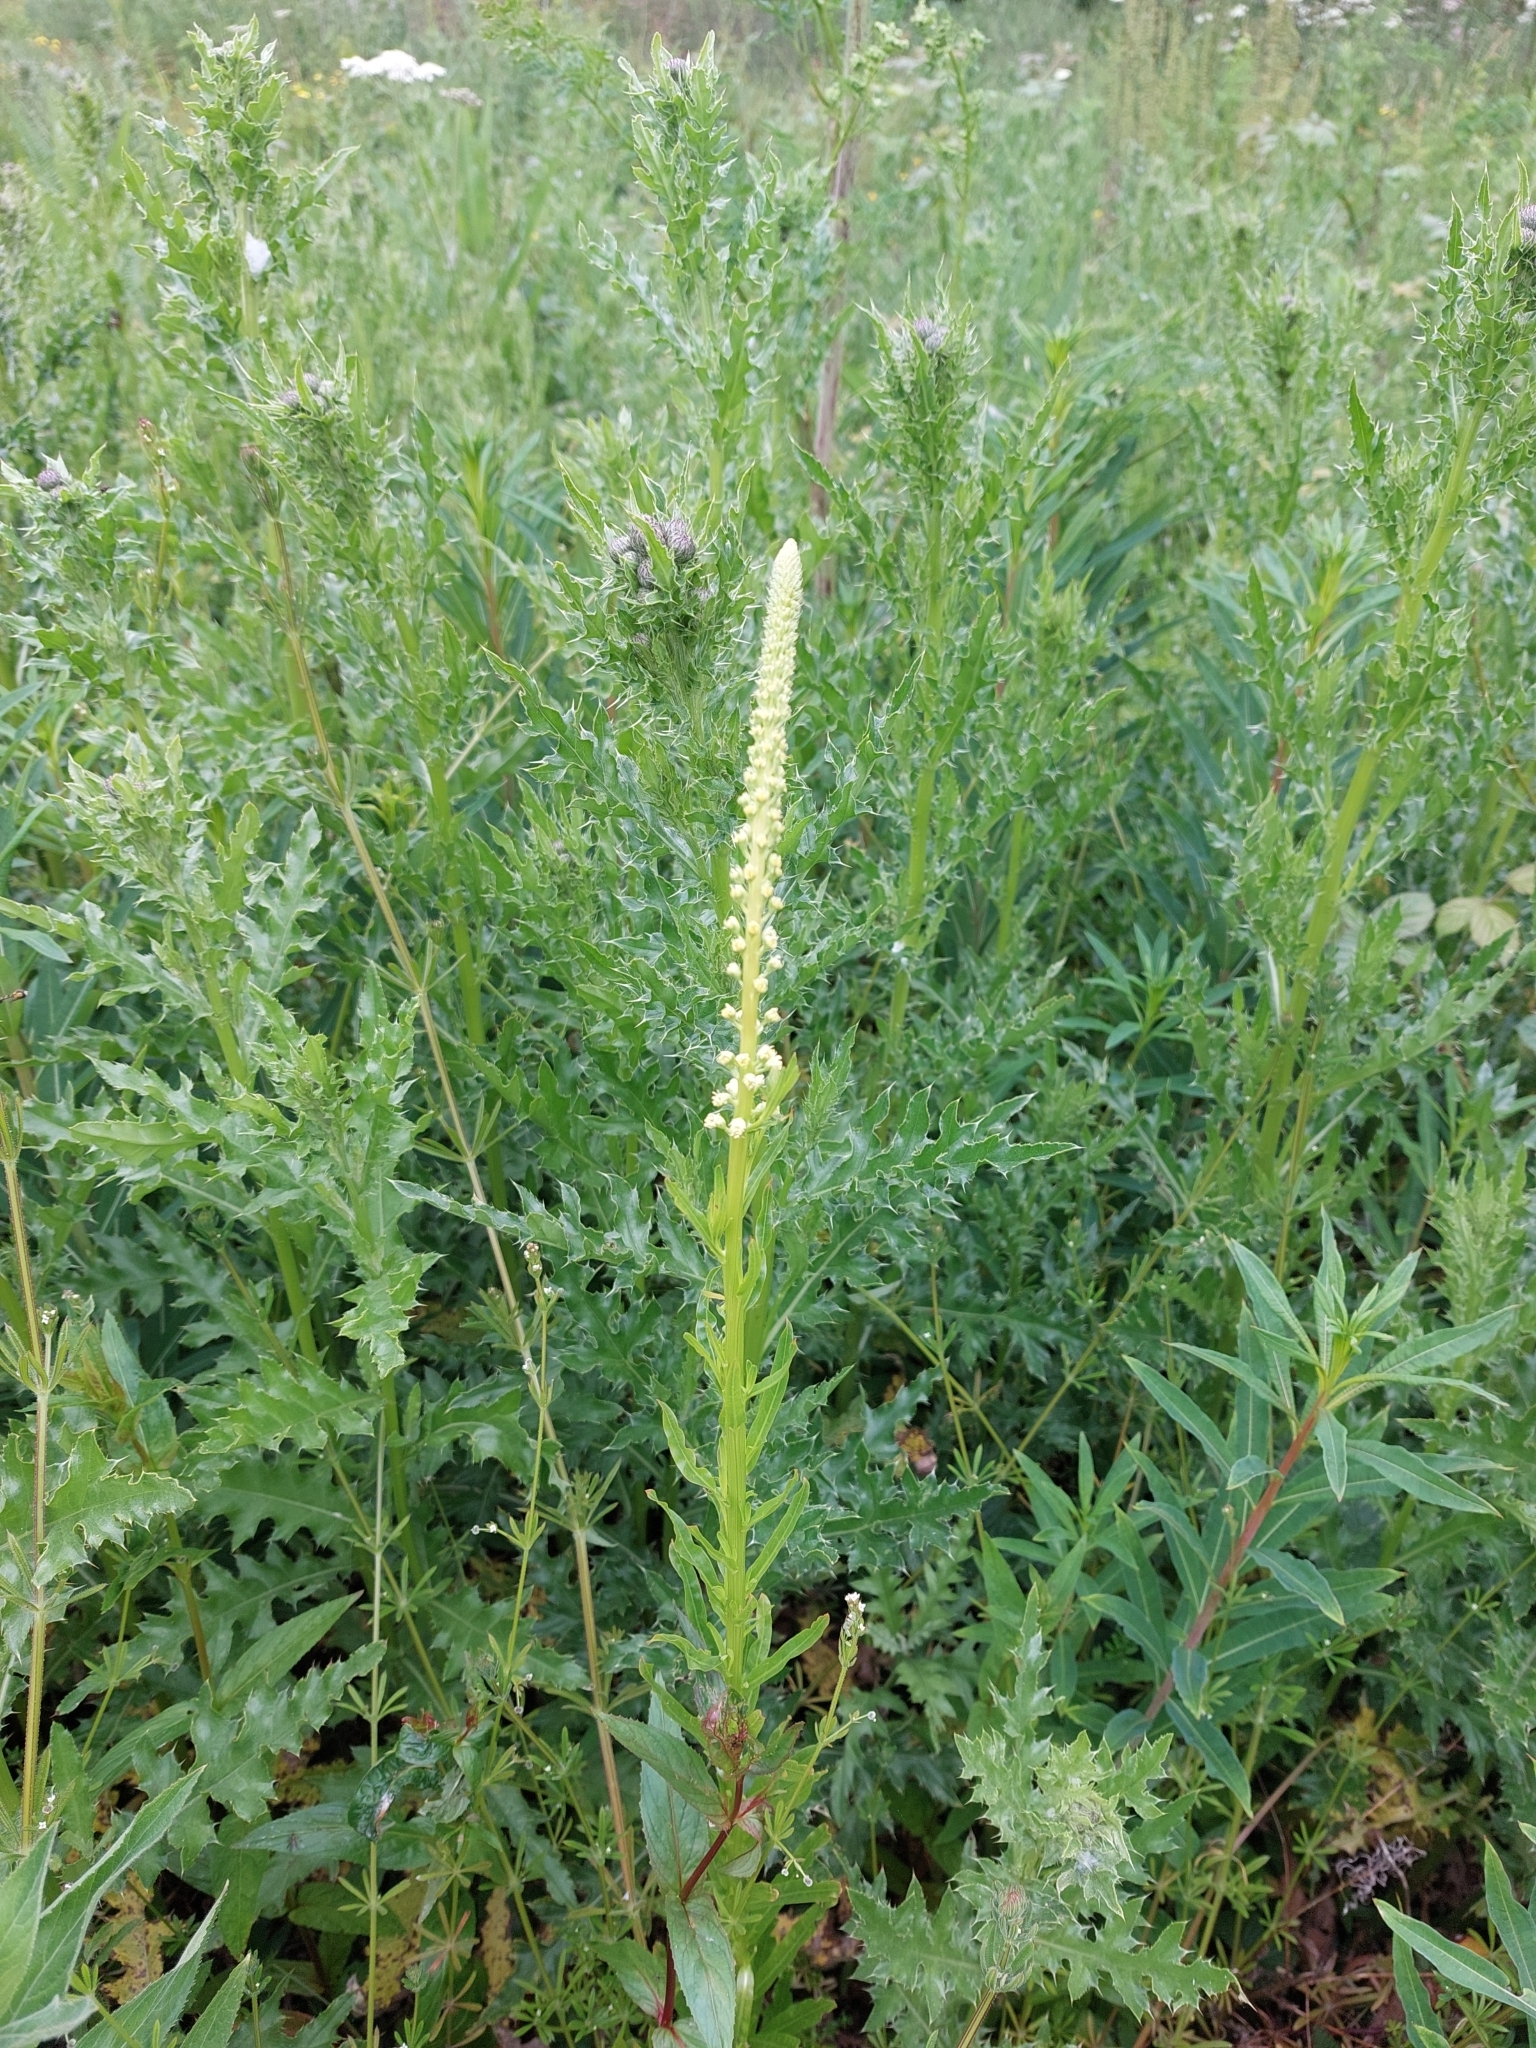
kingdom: Plantae
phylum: Tracheophyta
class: Magnoliopsida
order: Brassicales
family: Resedaceae
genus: Reseda
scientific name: Reseda luteola
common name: Weld
